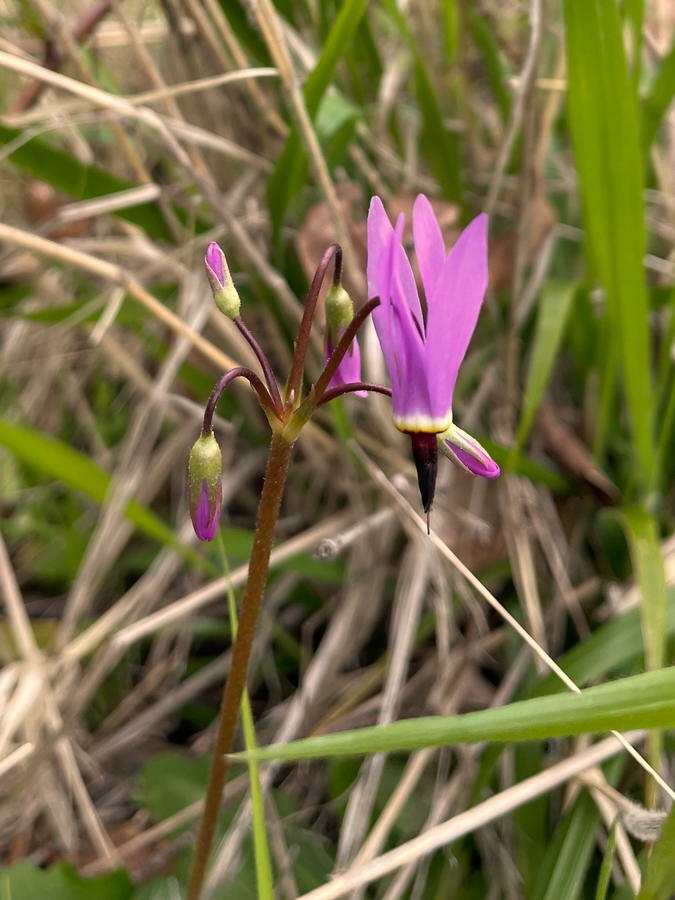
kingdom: Plantae
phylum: Tracheophyta
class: Magnoliopsida
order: Ericales
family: Primulaceae
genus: Dodecatheon
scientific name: Dodecatheon hendersonii
